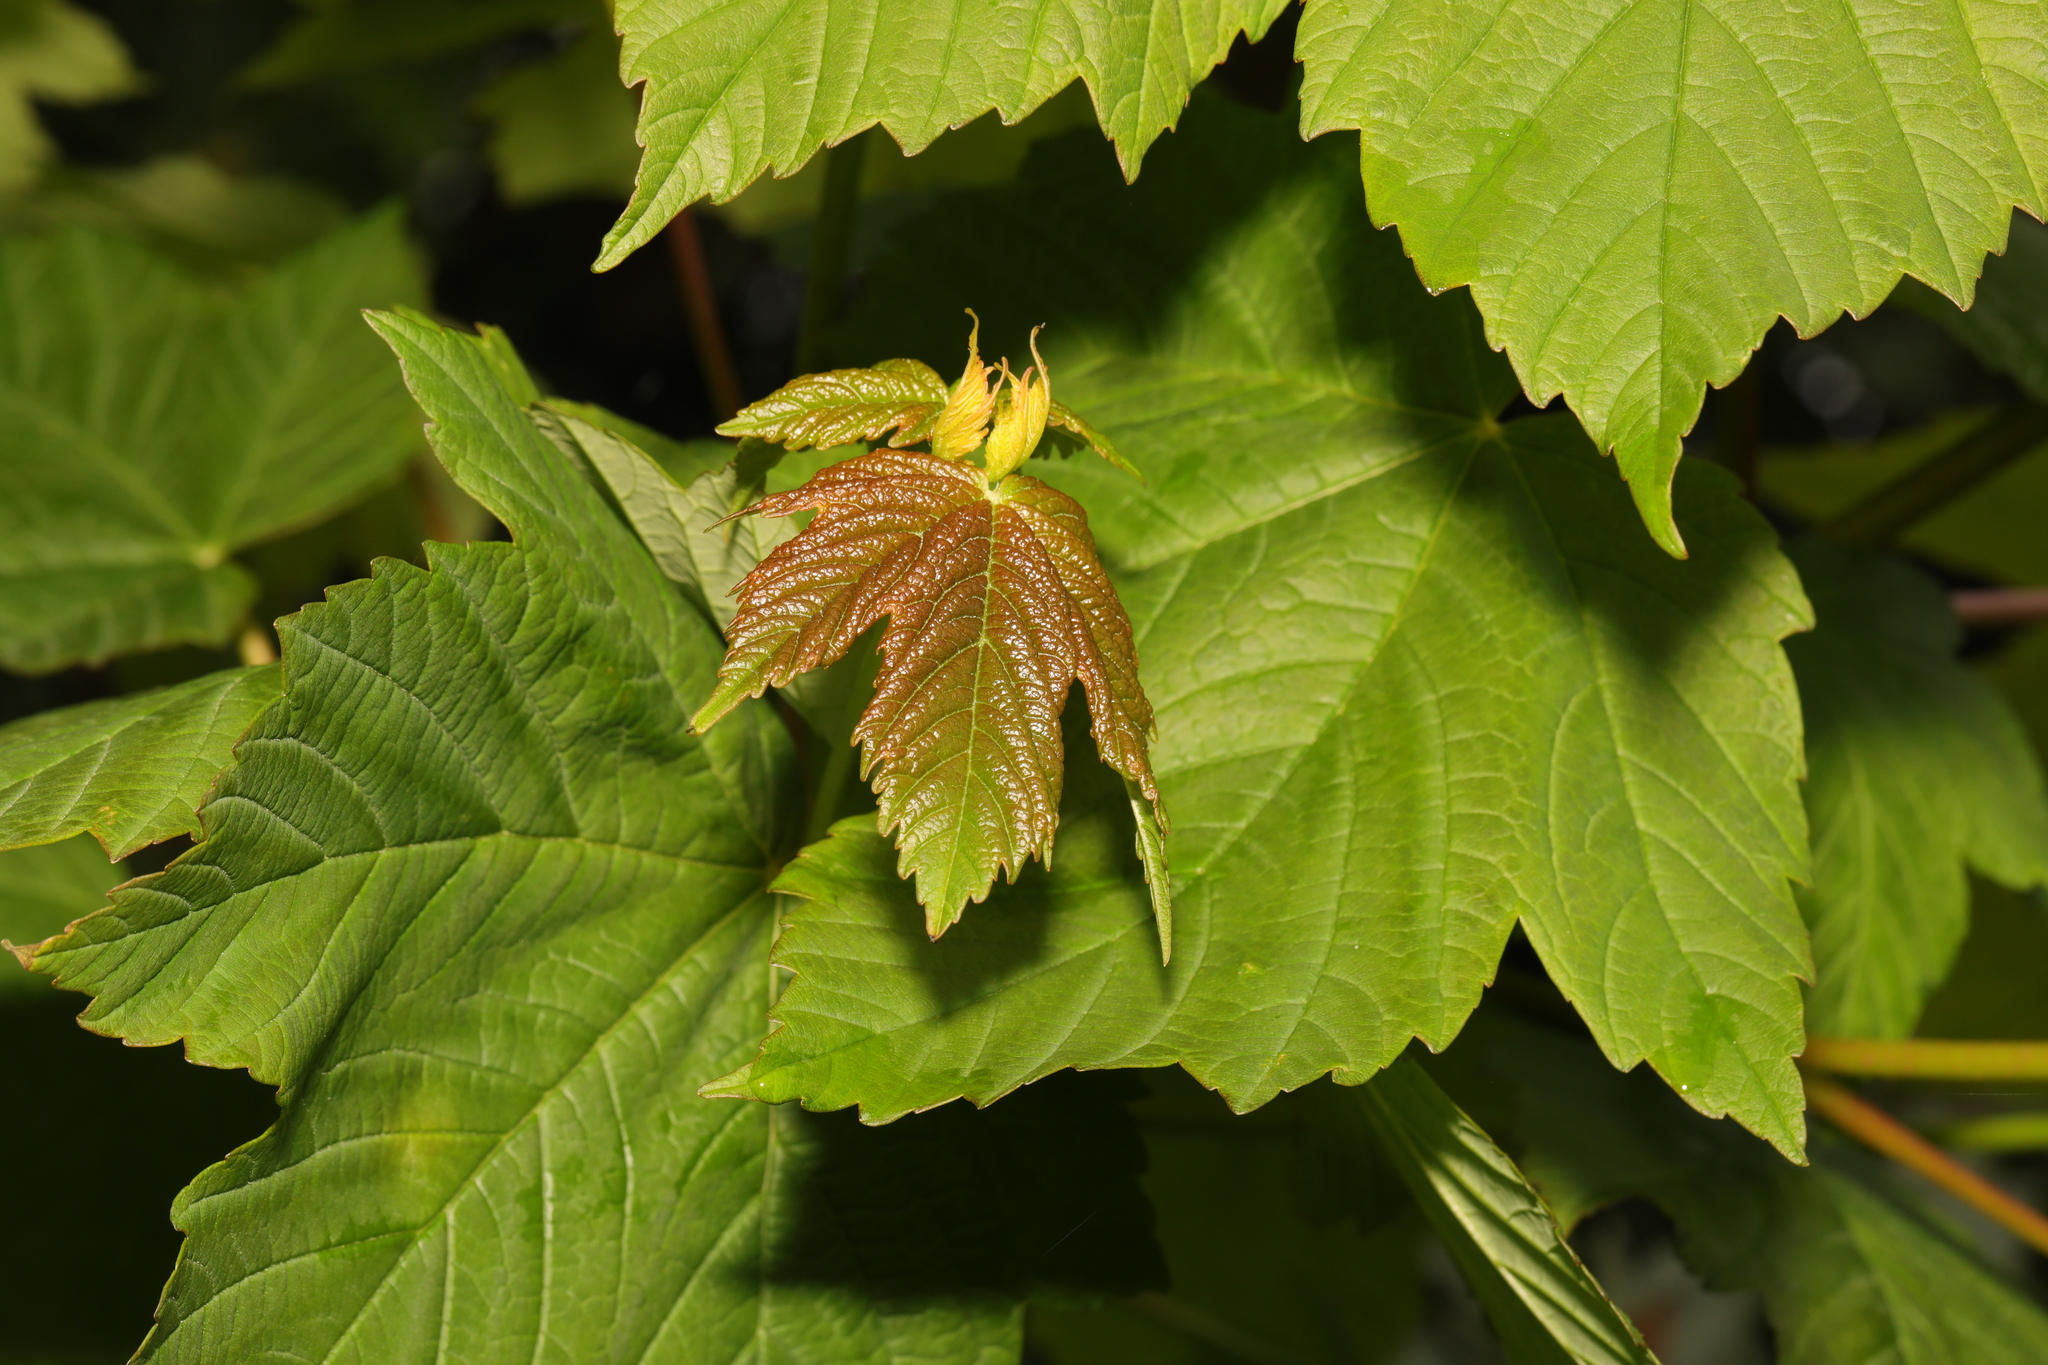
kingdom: Plantae
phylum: Tracheophyta
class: Magnoliopsida
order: Sapindales
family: Sapindaceae
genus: Acer
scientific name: Acer pseudoplatanus
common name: Sycamore
